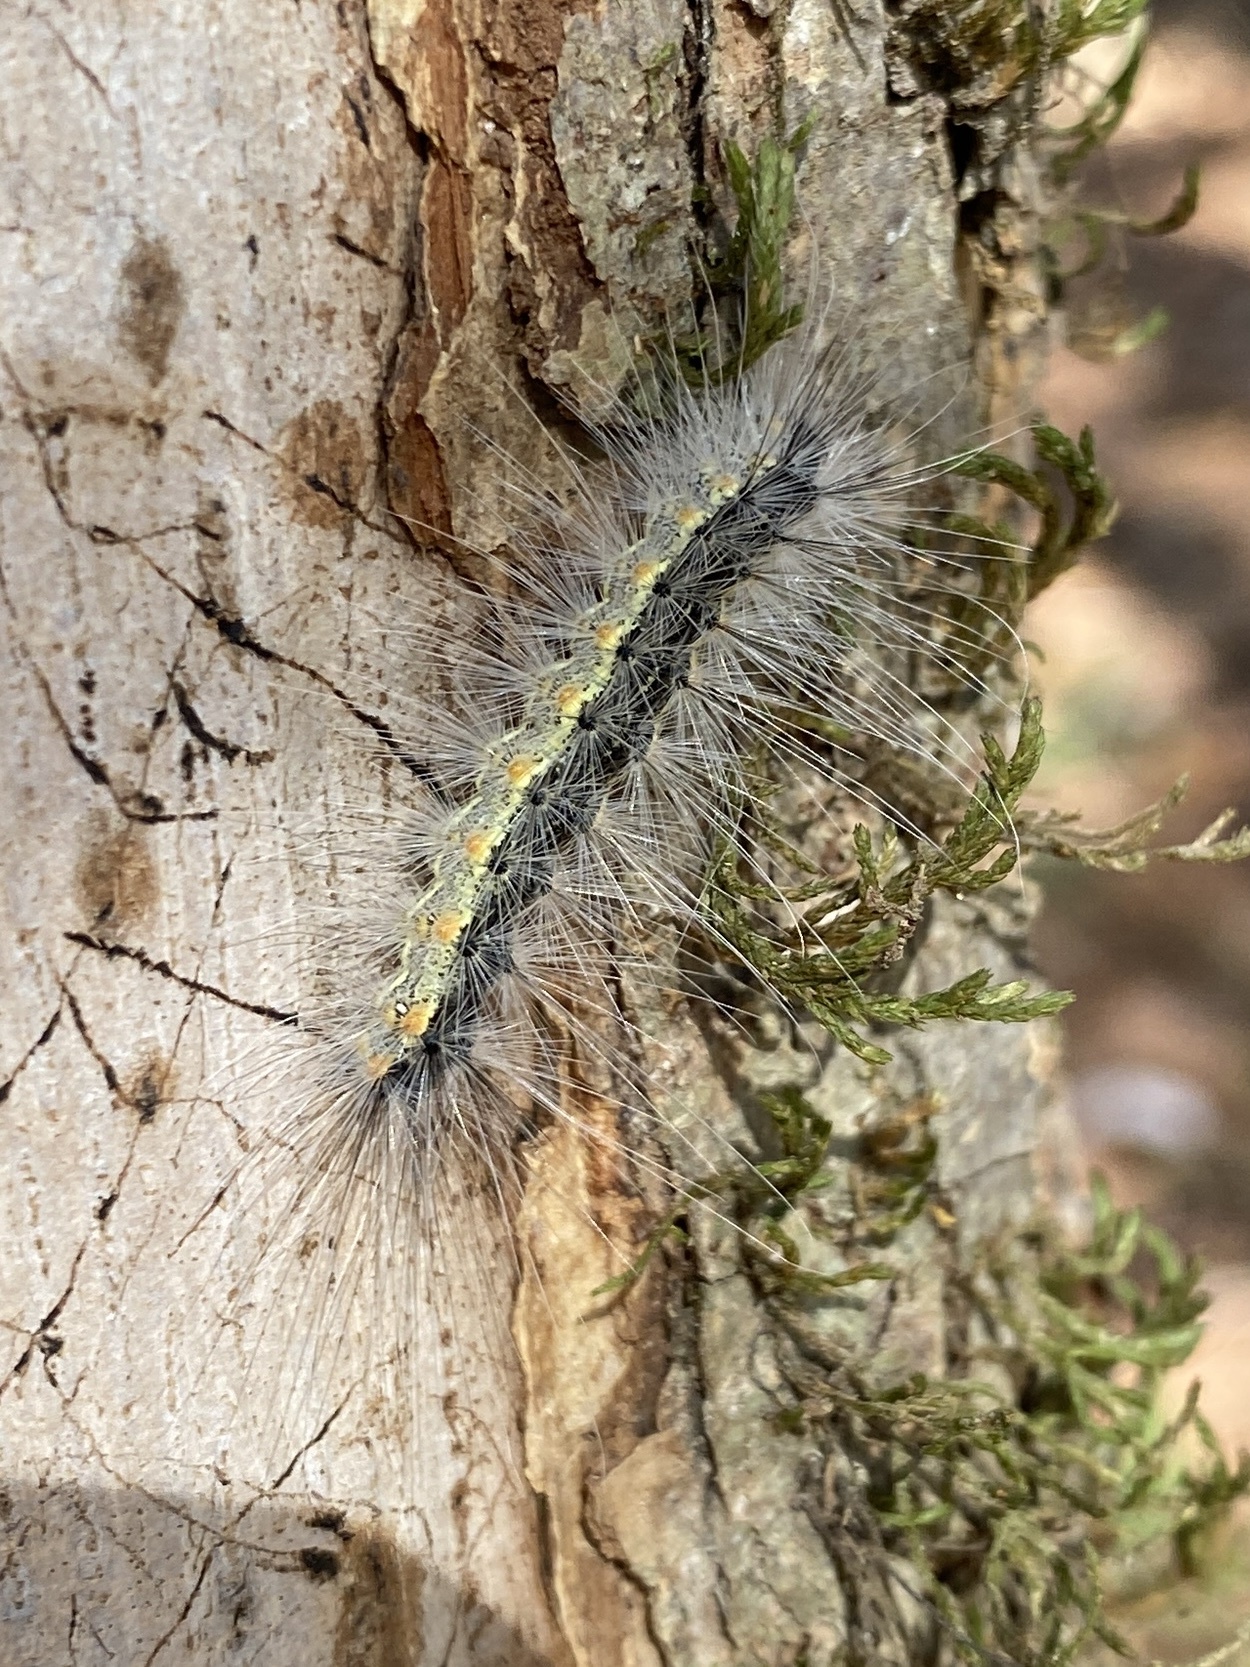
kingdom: Animalia
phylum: Arthropoda
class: Insecta
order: Lepidoptera
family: Erebidae
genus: Hyphantria
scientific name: Hyphantria cunea
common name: American white moth
